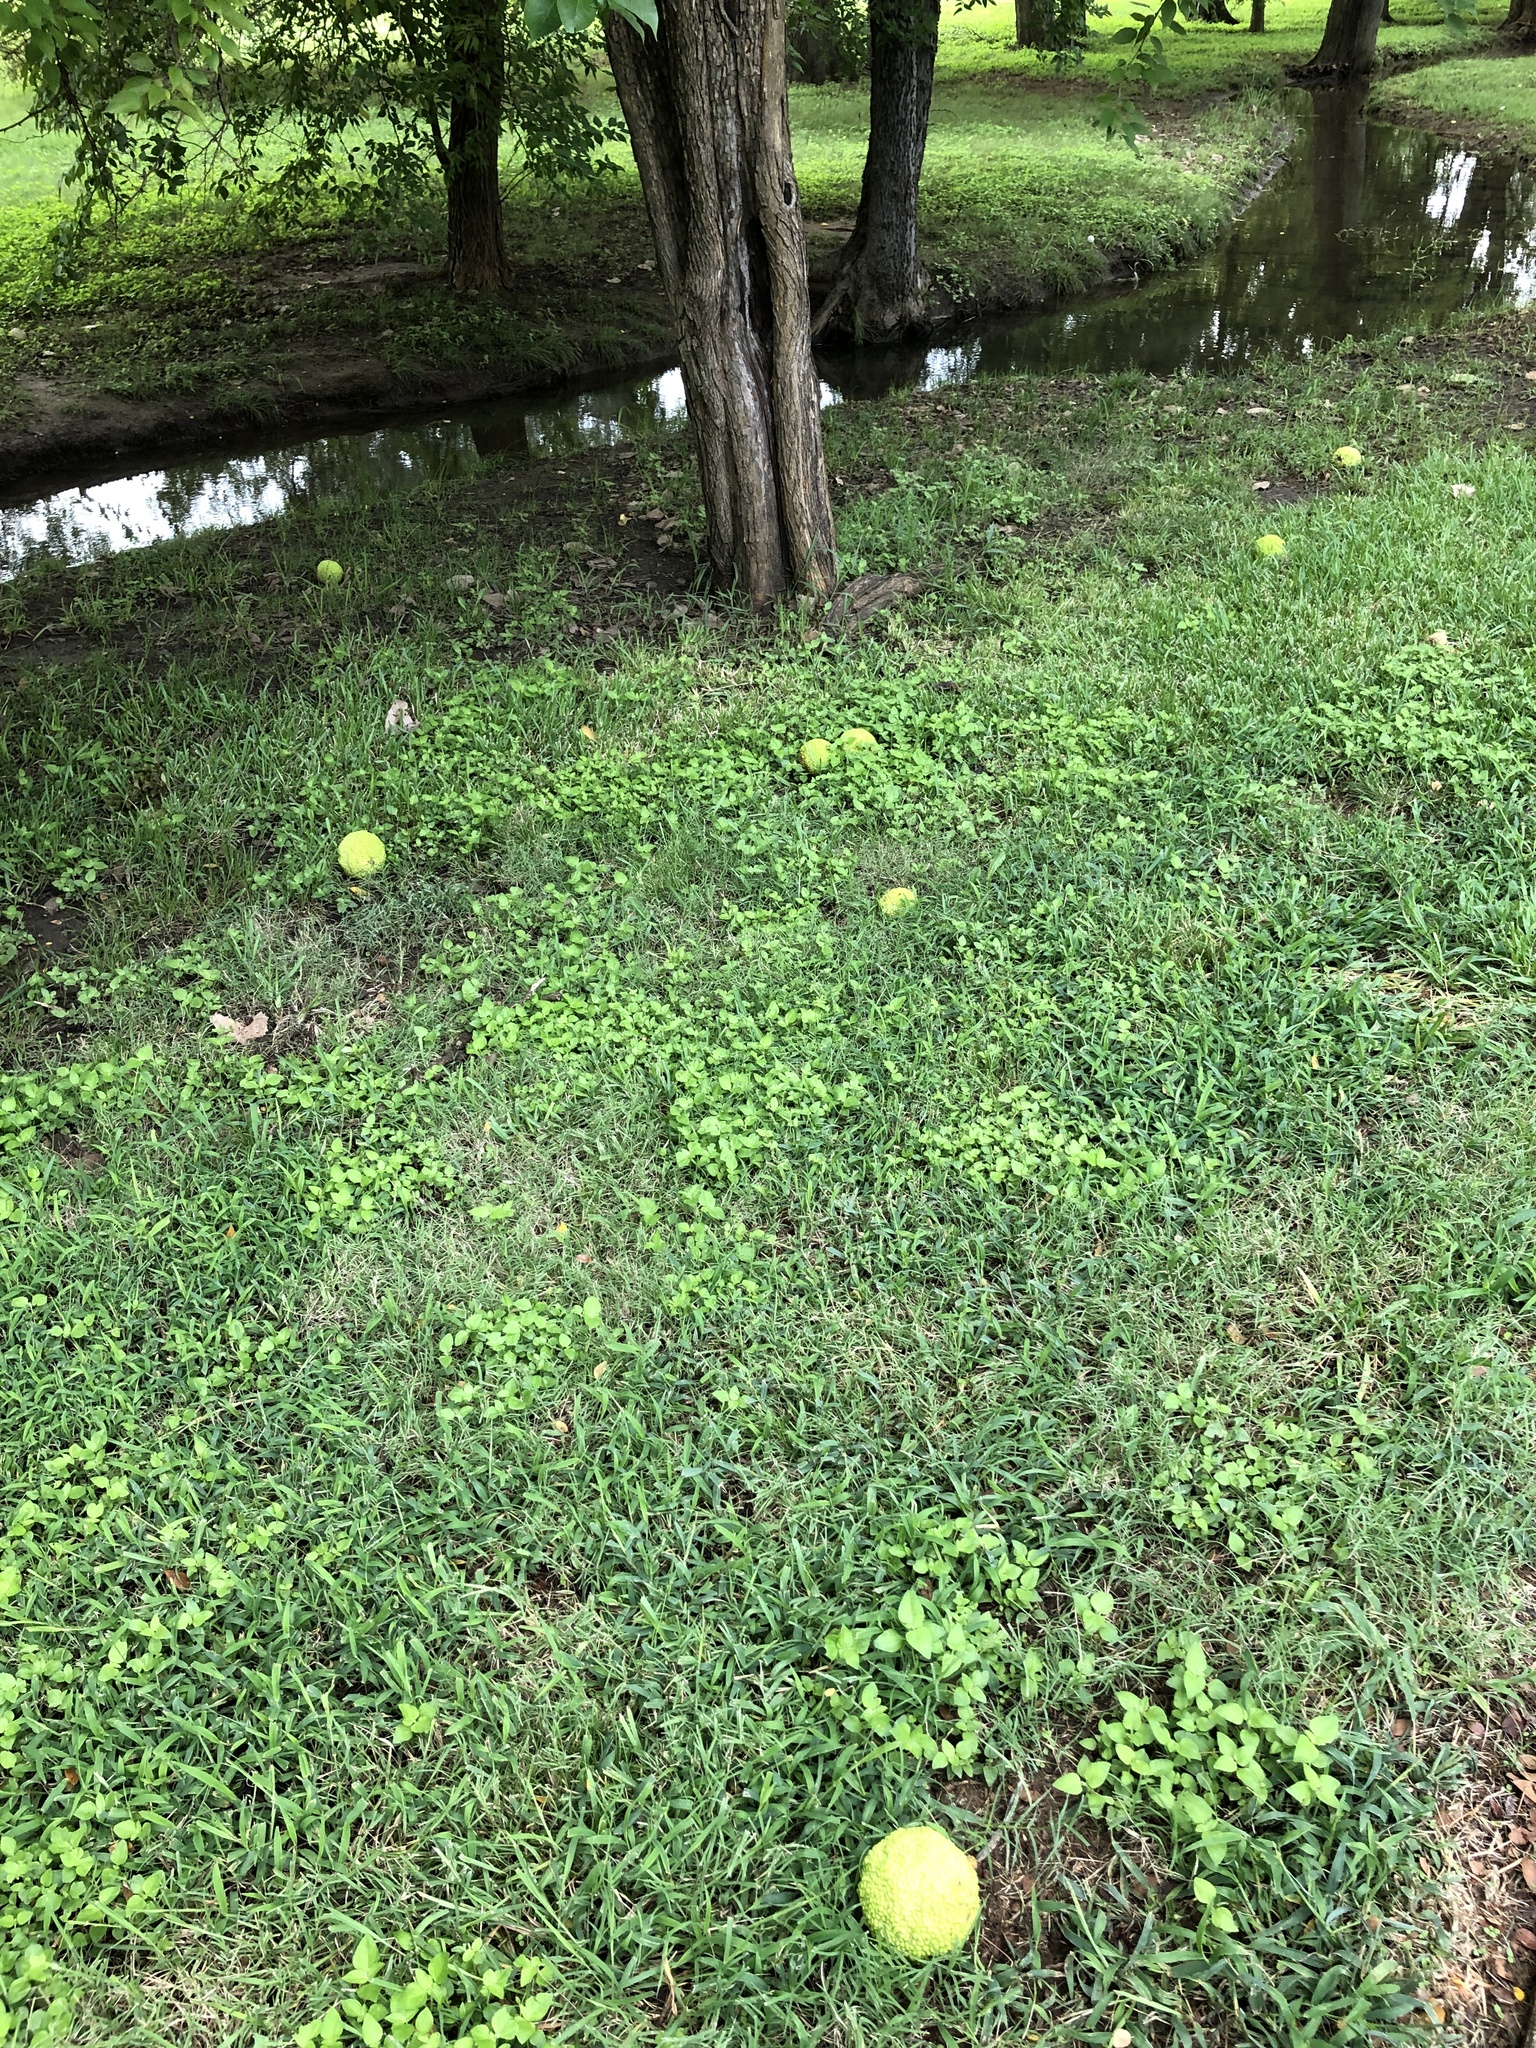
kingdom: Plantae
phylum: Tracheophyta
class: Magnoliopsida
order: Rosales
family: Moraceae
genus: Maclura
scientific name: Maclura pomifera
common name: Osage-orange
